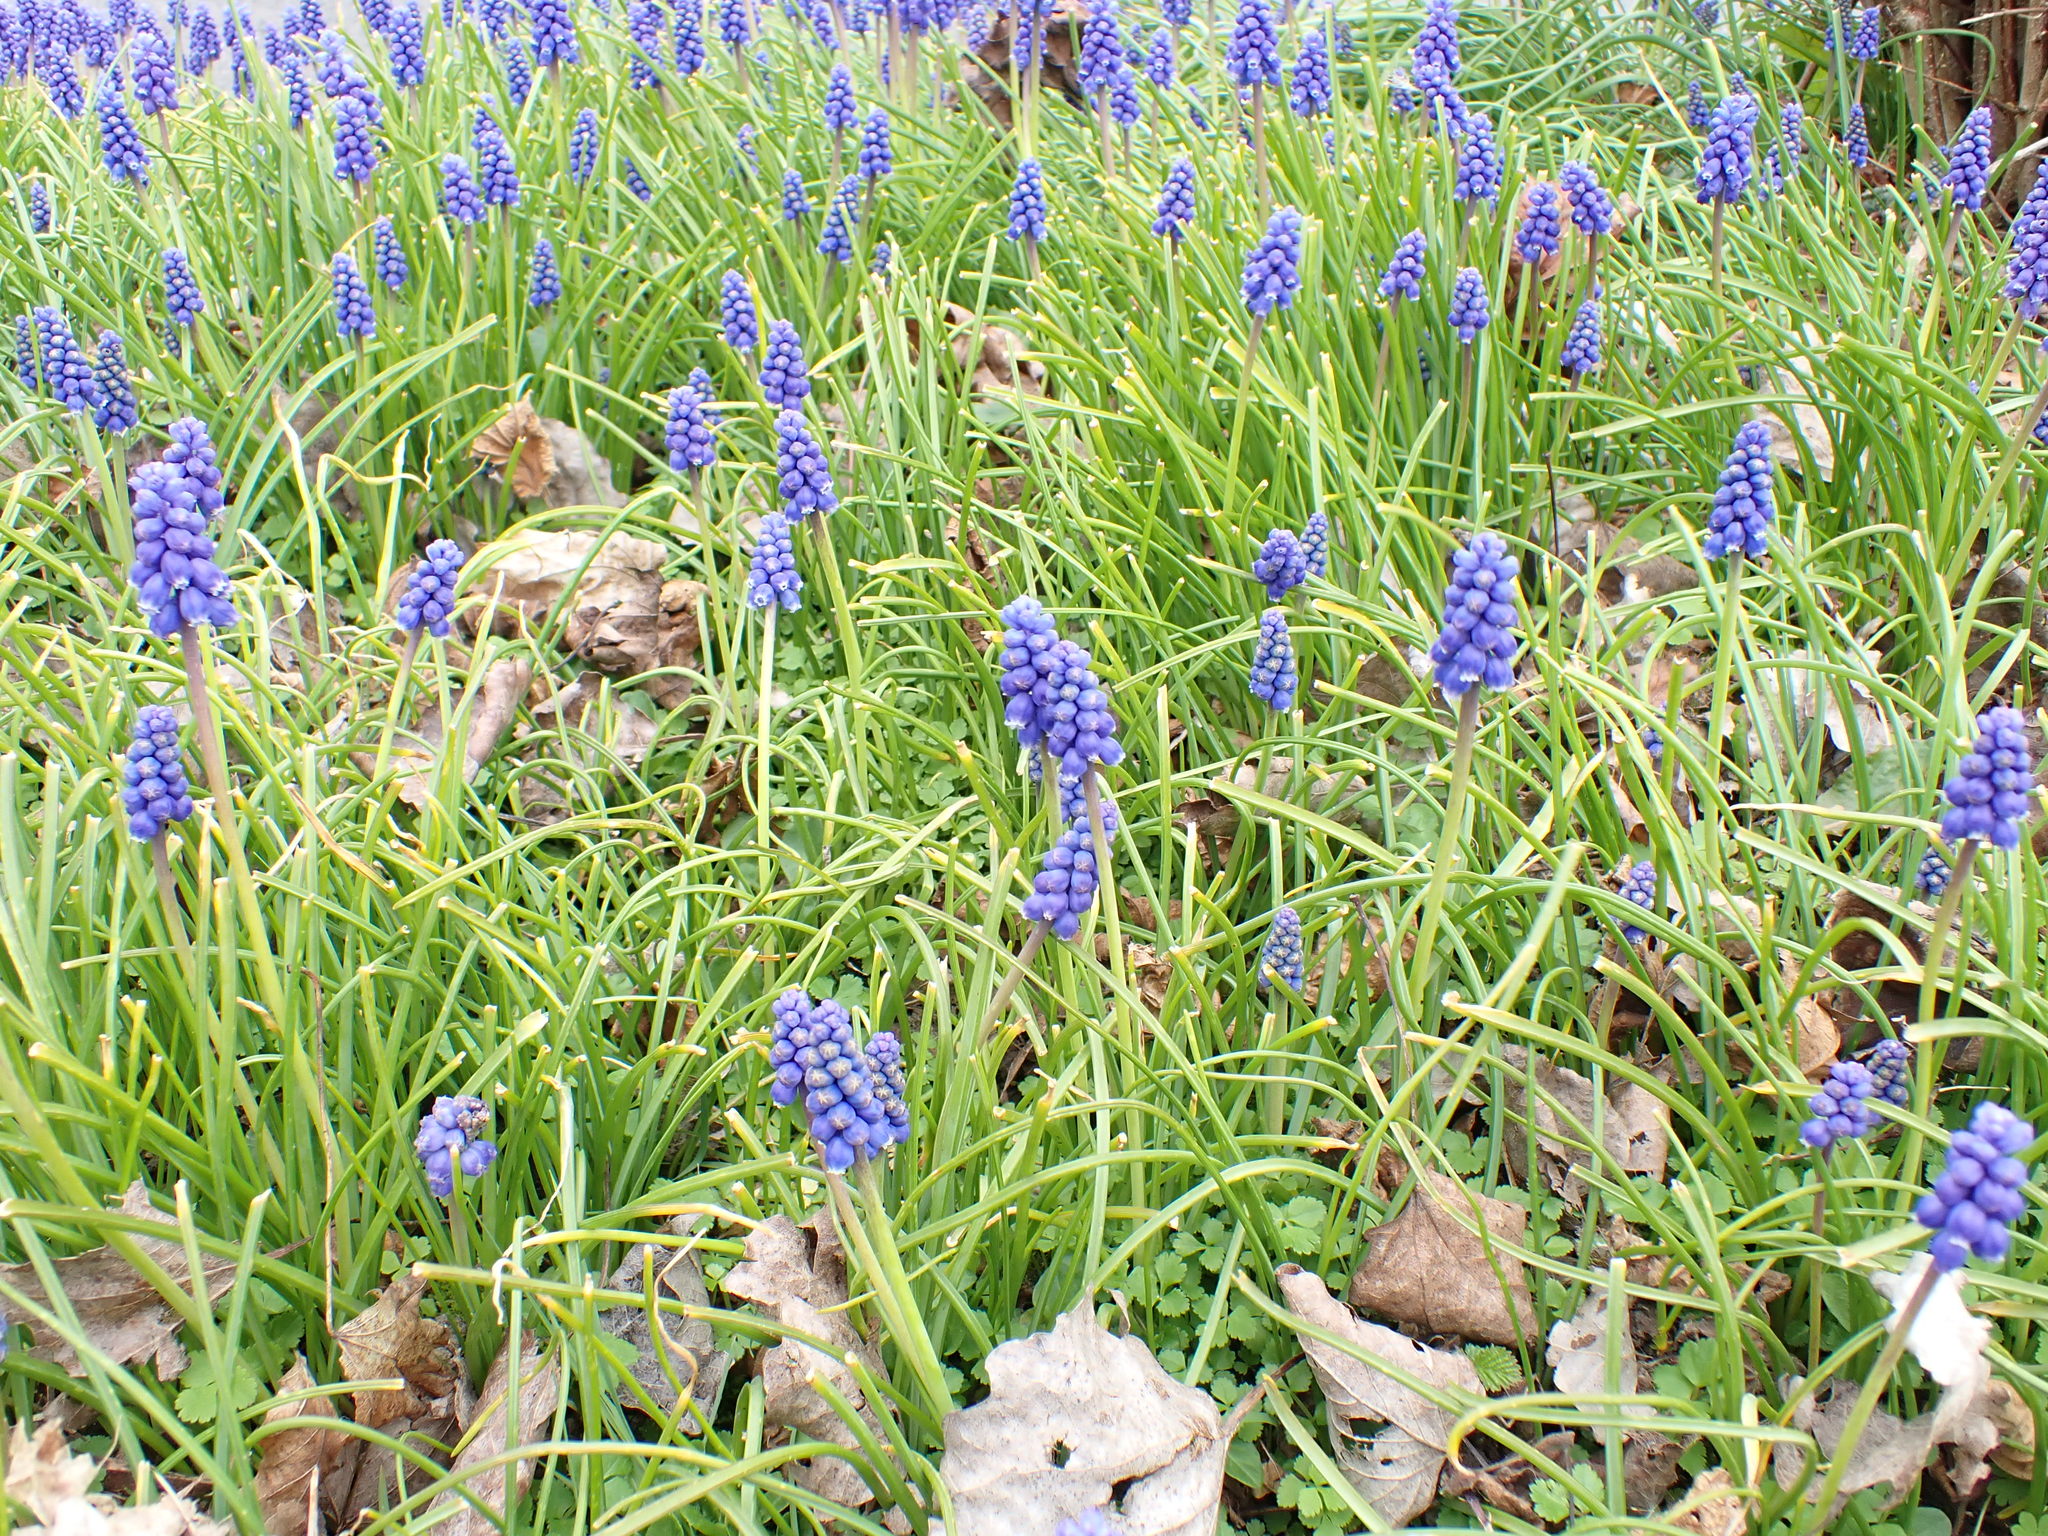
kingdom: Plantae
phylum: Tracheophyta
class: Liliopsida
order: Asparagales
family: Asparagaceae
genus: Muscari
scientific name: Muscari armeniacum
